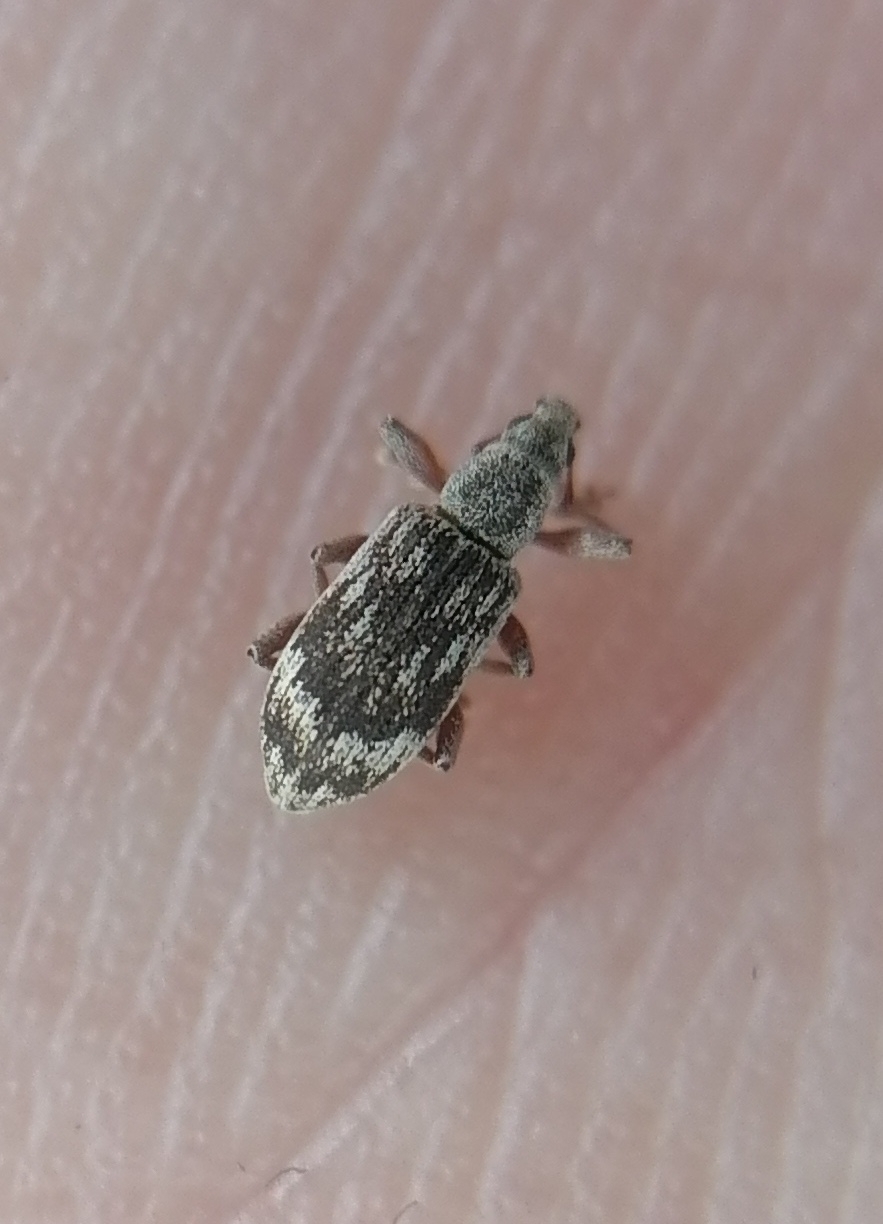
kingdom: Animalia
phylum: Arthropoda
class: Insecta
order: Coleoptera
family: Curculionidae
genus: Polydrusus
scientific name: Polydrusus tereticollis
